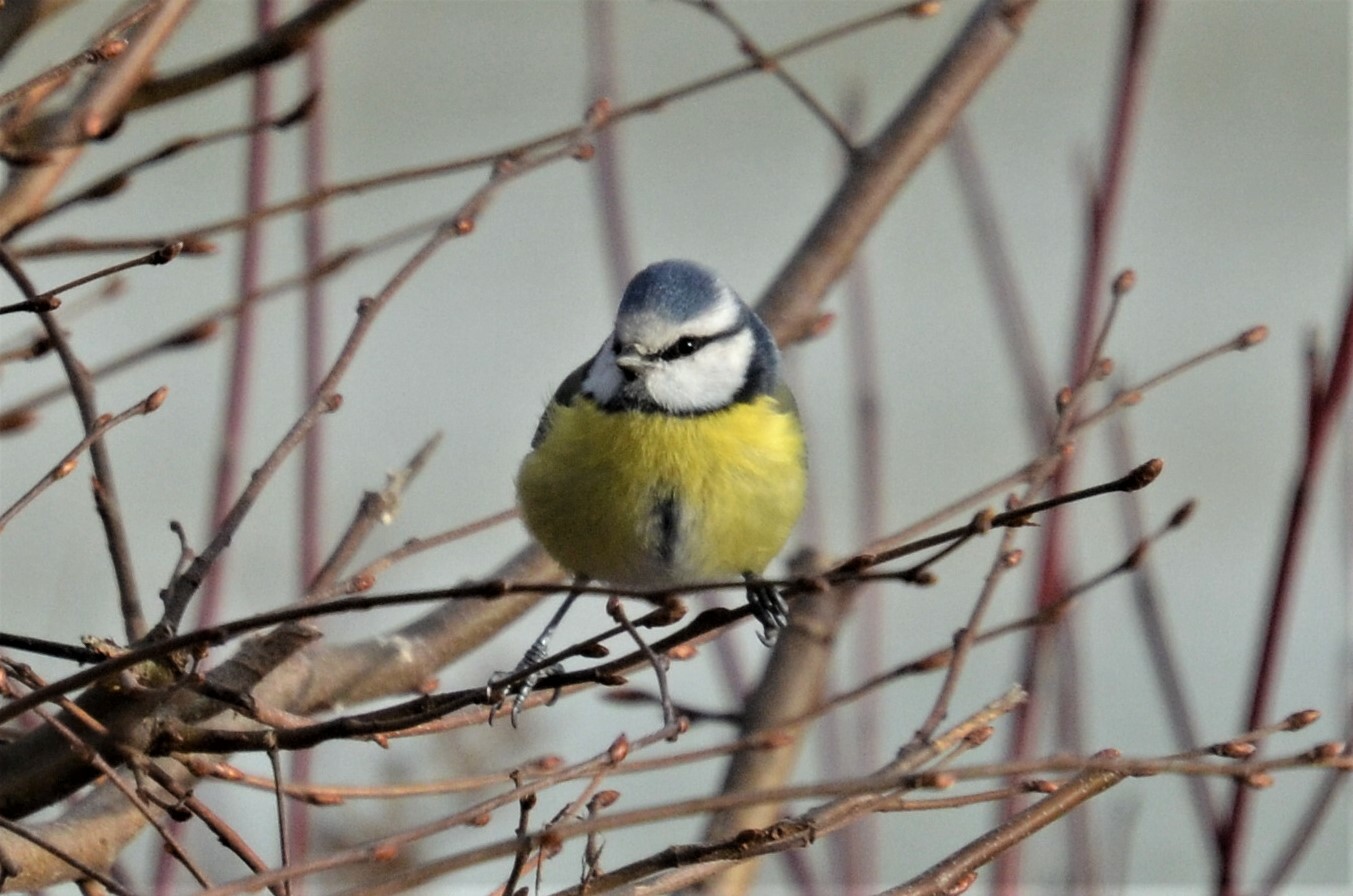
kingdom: Animalia
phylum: Chordata
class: Aves
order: Passeriformes
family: Paridae
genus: Cyanistes
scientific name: Cyanistes caeruleus
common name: Eurasian blue tit
